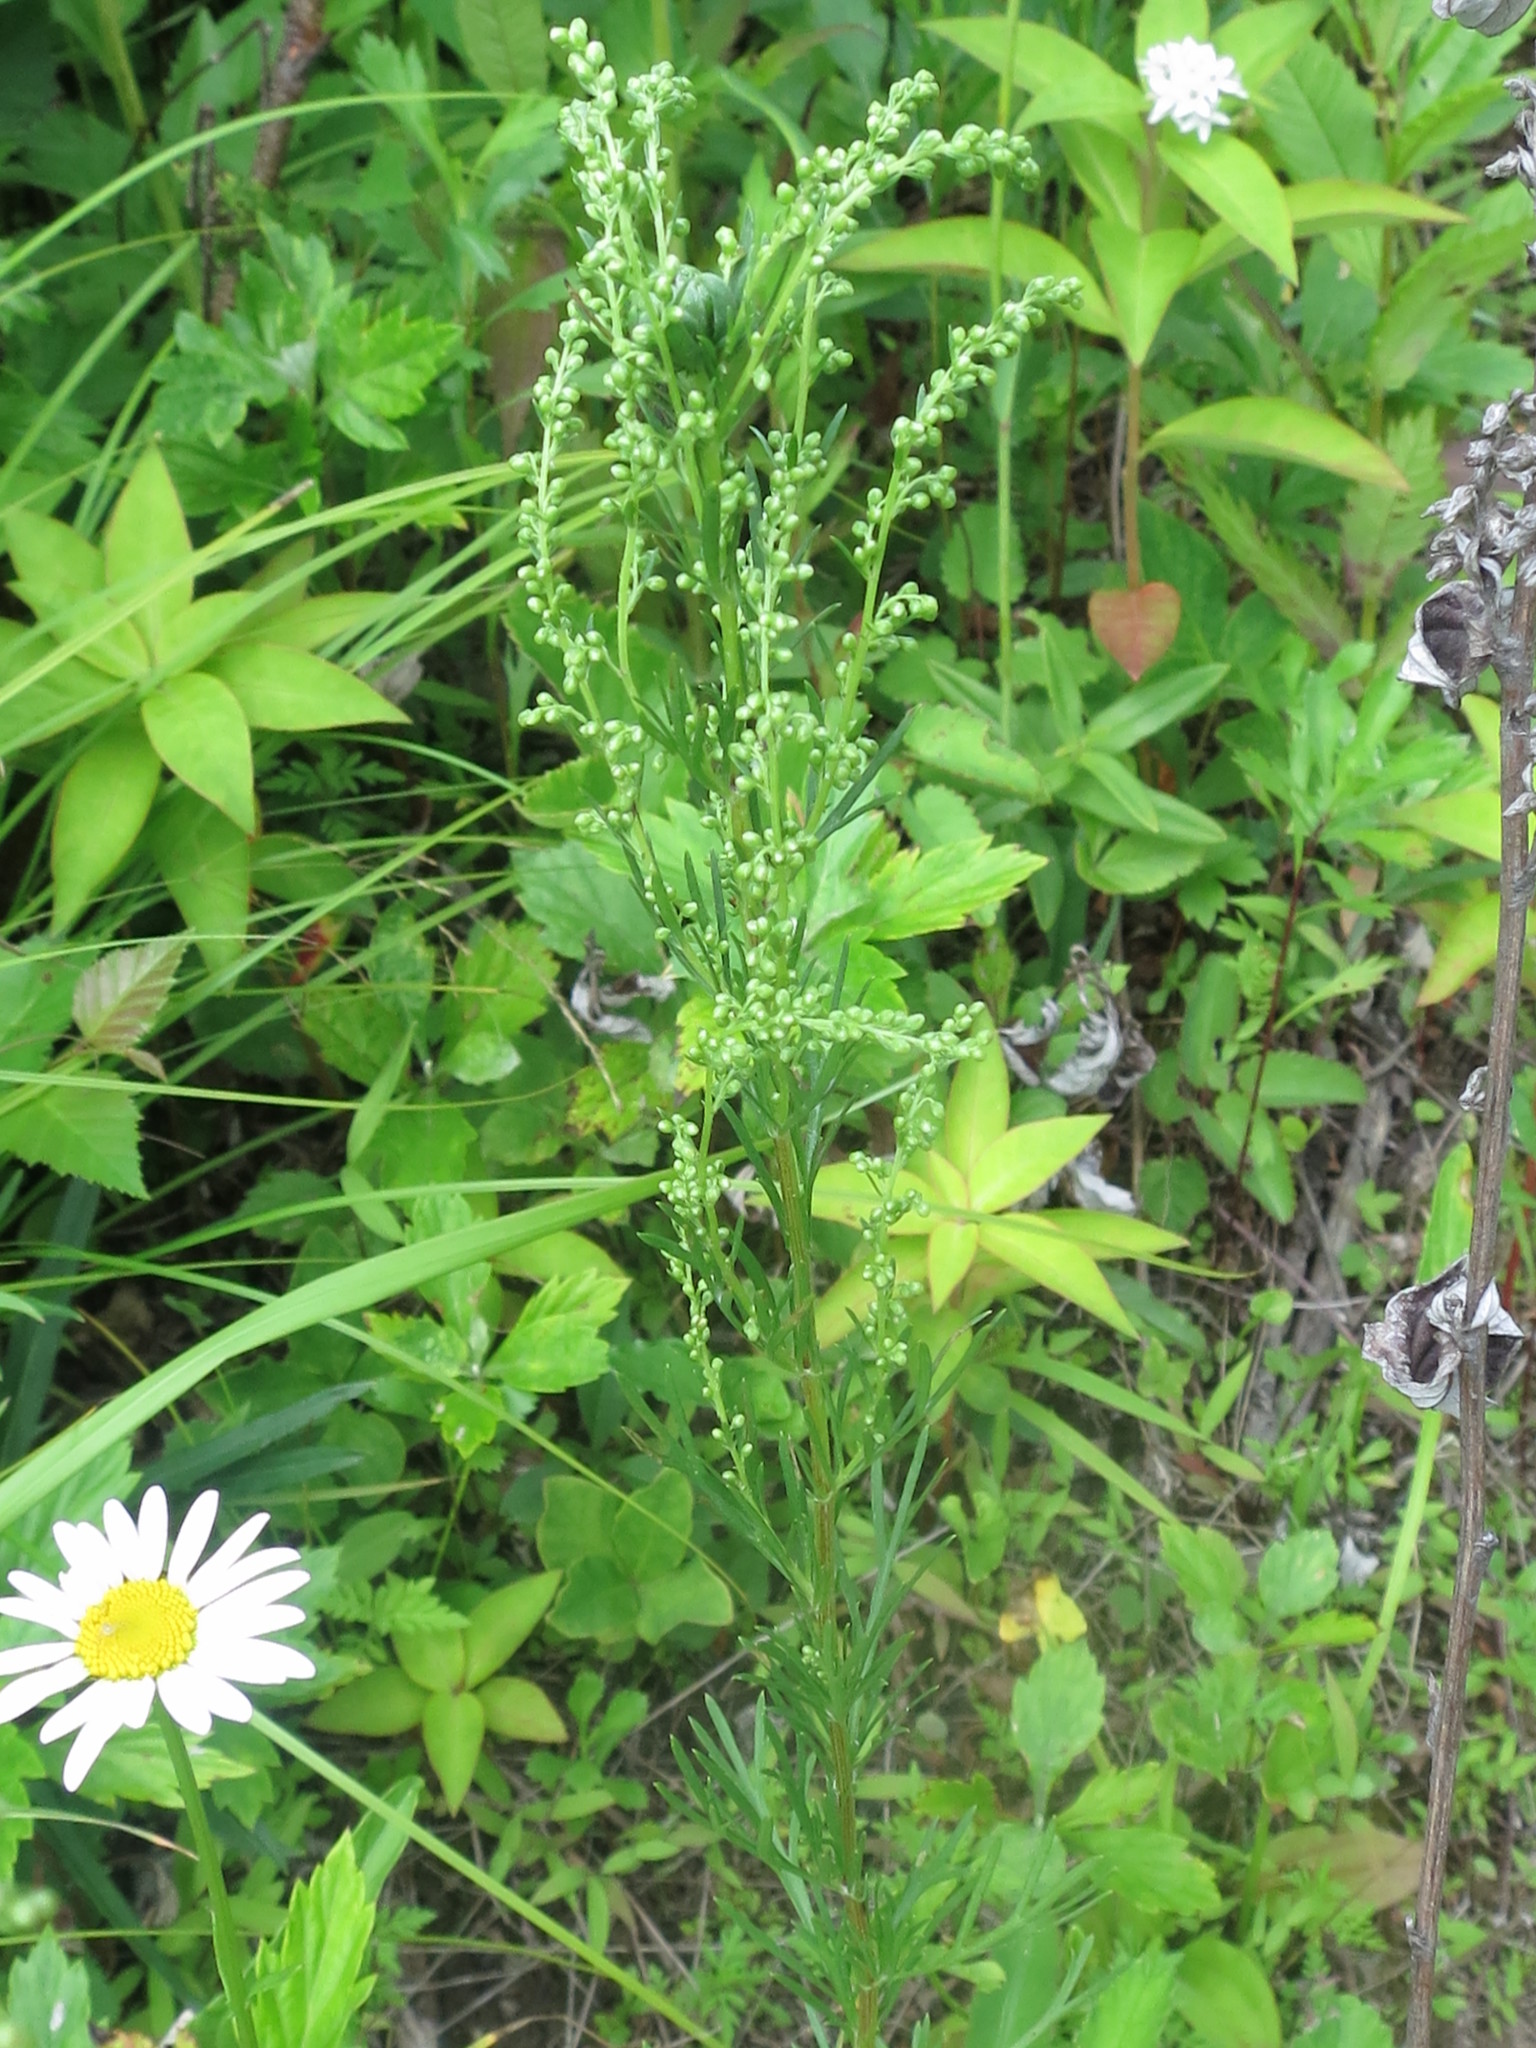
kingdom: Plantae
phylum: Tracheophyta
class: Magnoliopsida
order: Asterales
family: Asteraceae
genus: Artemisia
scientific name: Artemisia manshurica
